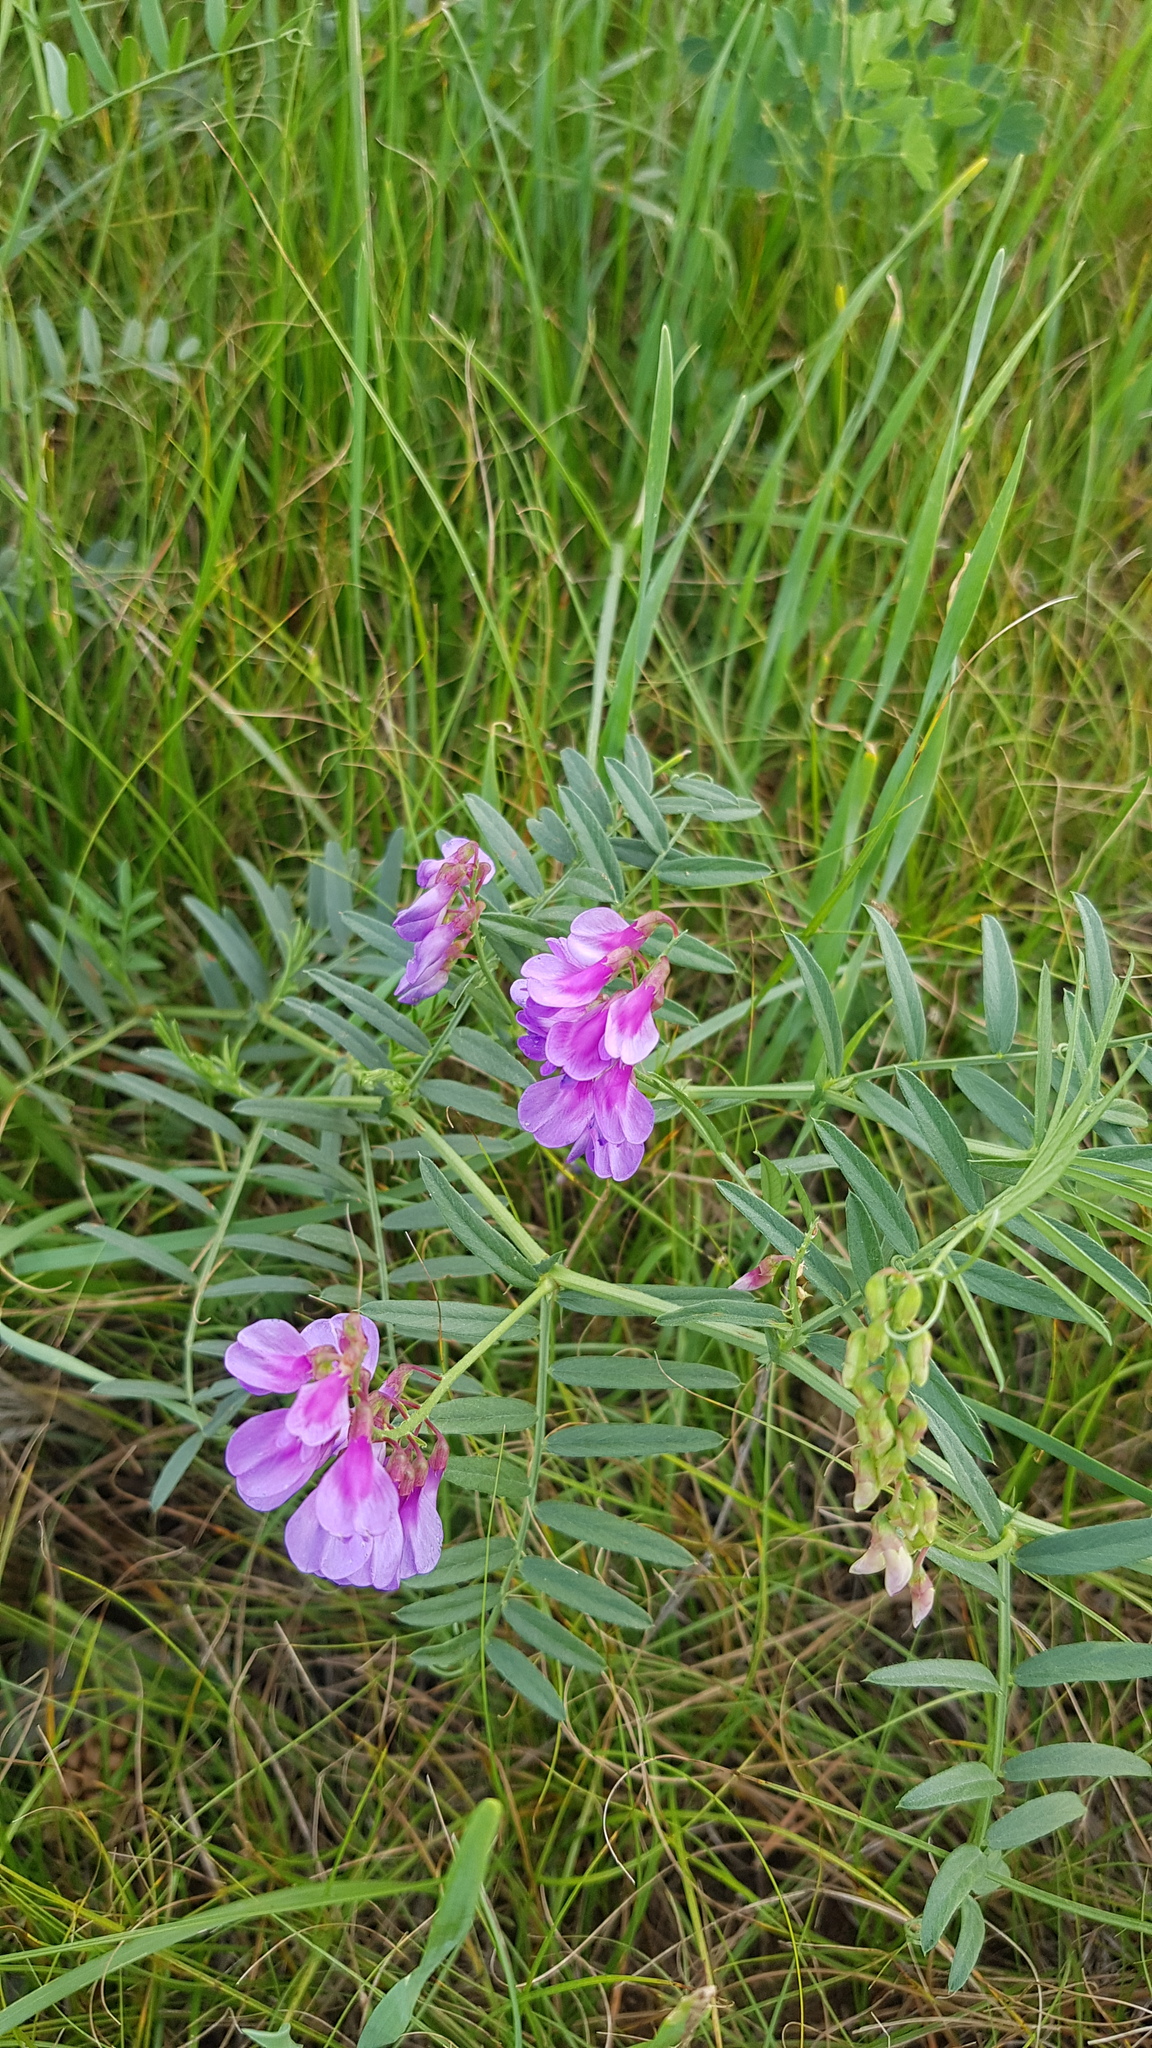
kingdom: Plantae
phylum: Tracheophyta
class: Magnoliopsida
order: Fabales
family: Fabaceae
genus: Vicia
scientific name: Vicia cracca
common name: Bird vetch
